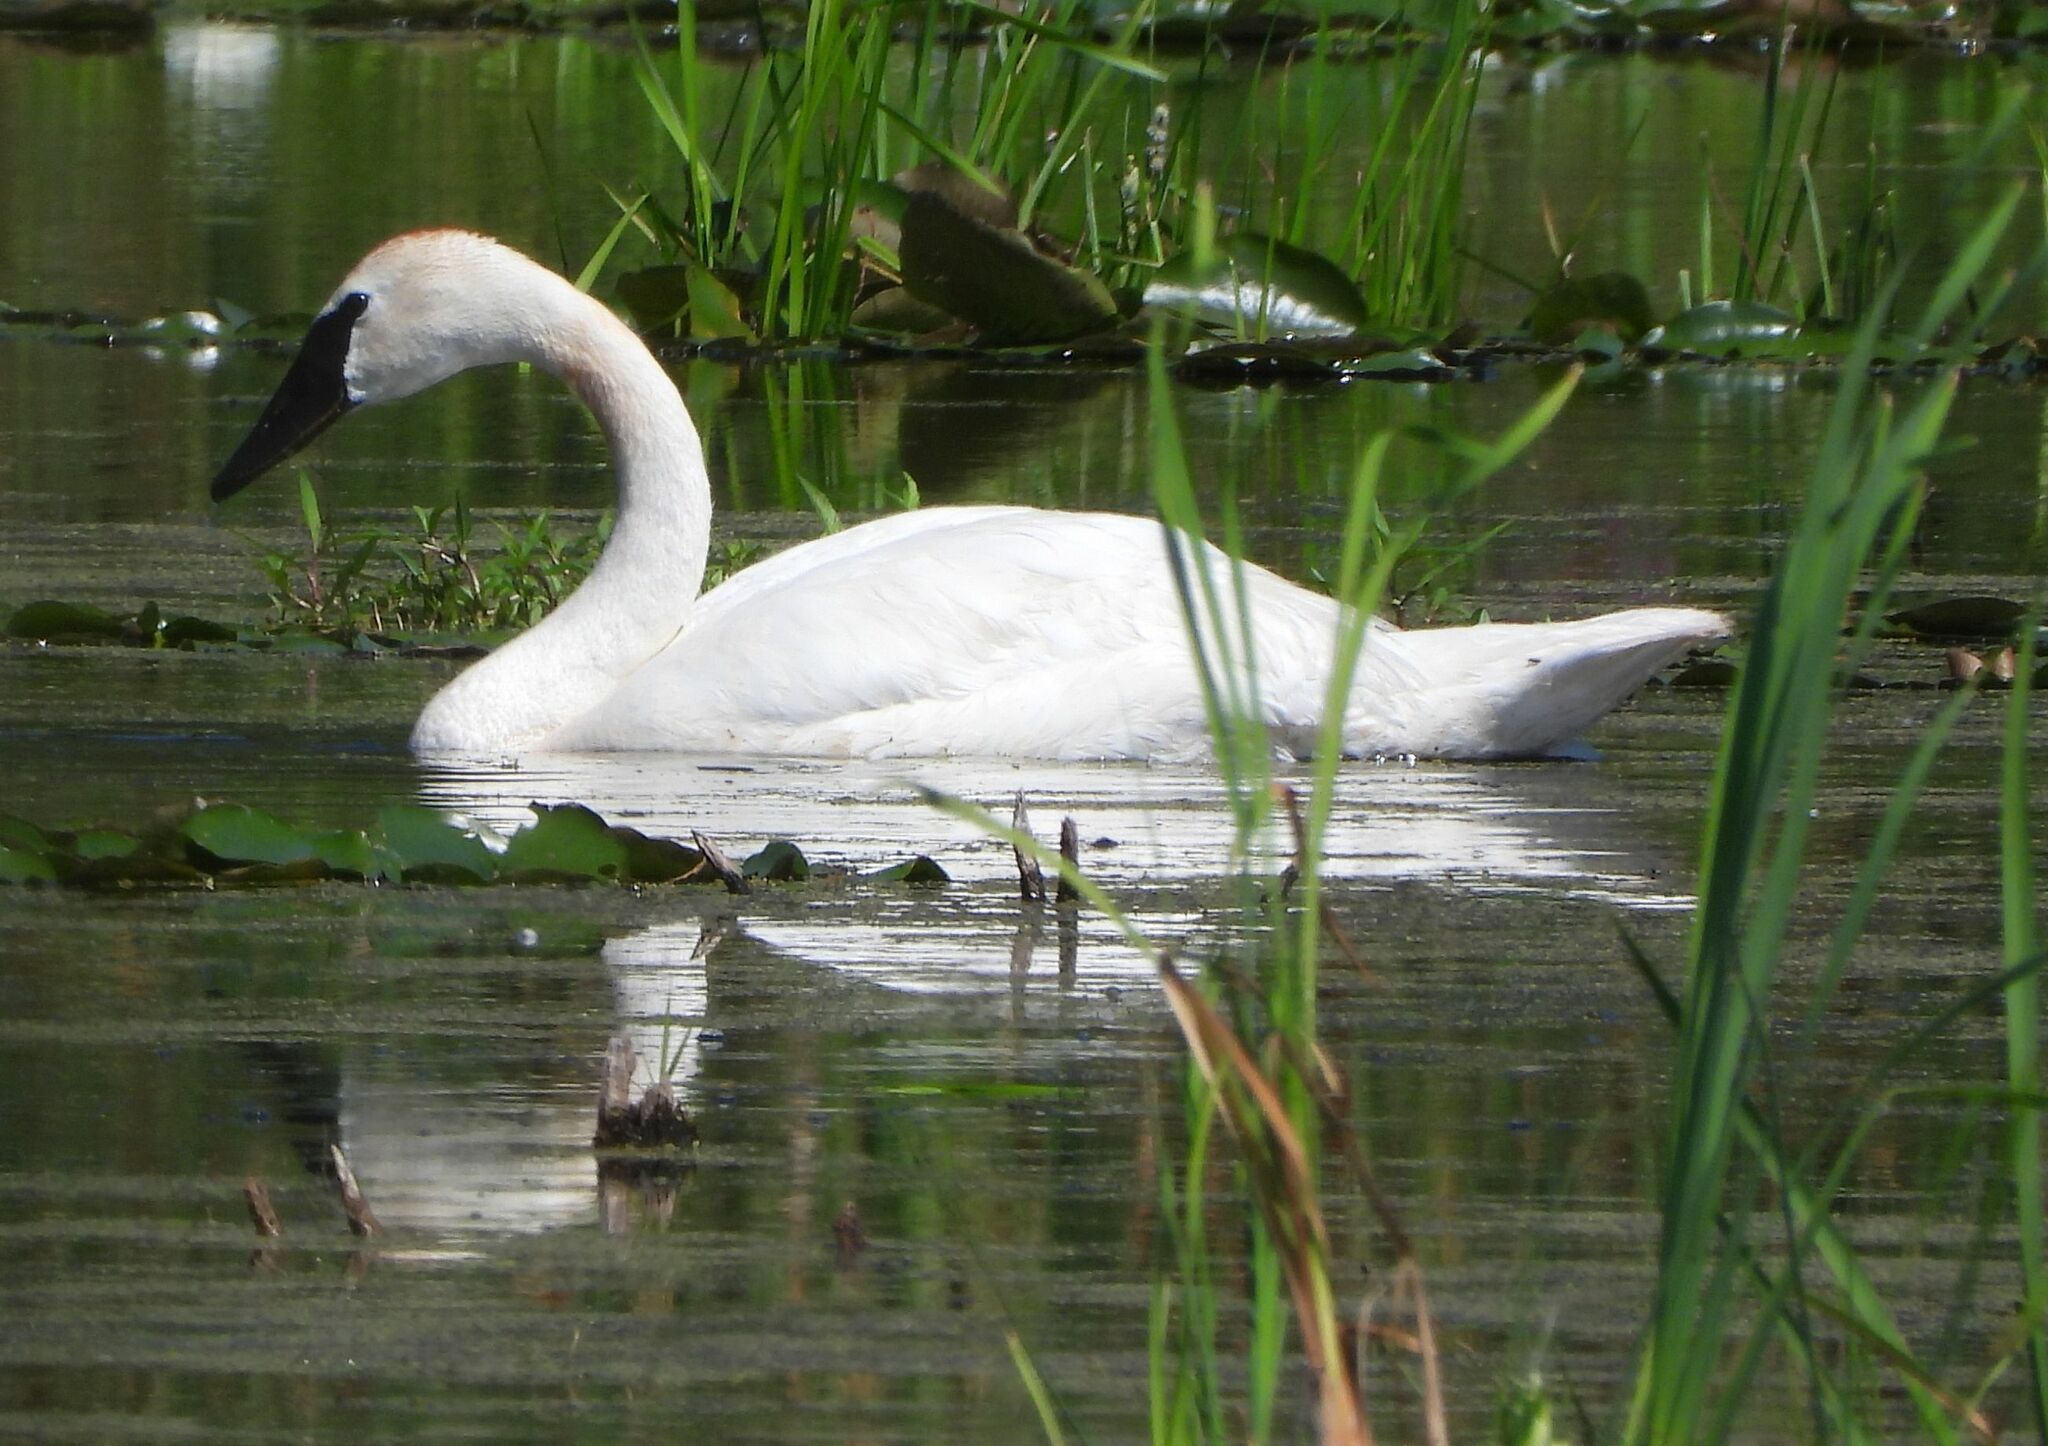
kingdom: Animalia
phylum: Chordata
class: Aves
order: Anseriformes
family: Anatidae
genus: Cygnus
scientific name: Cygnus buccinator
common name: Trumpeter swan
